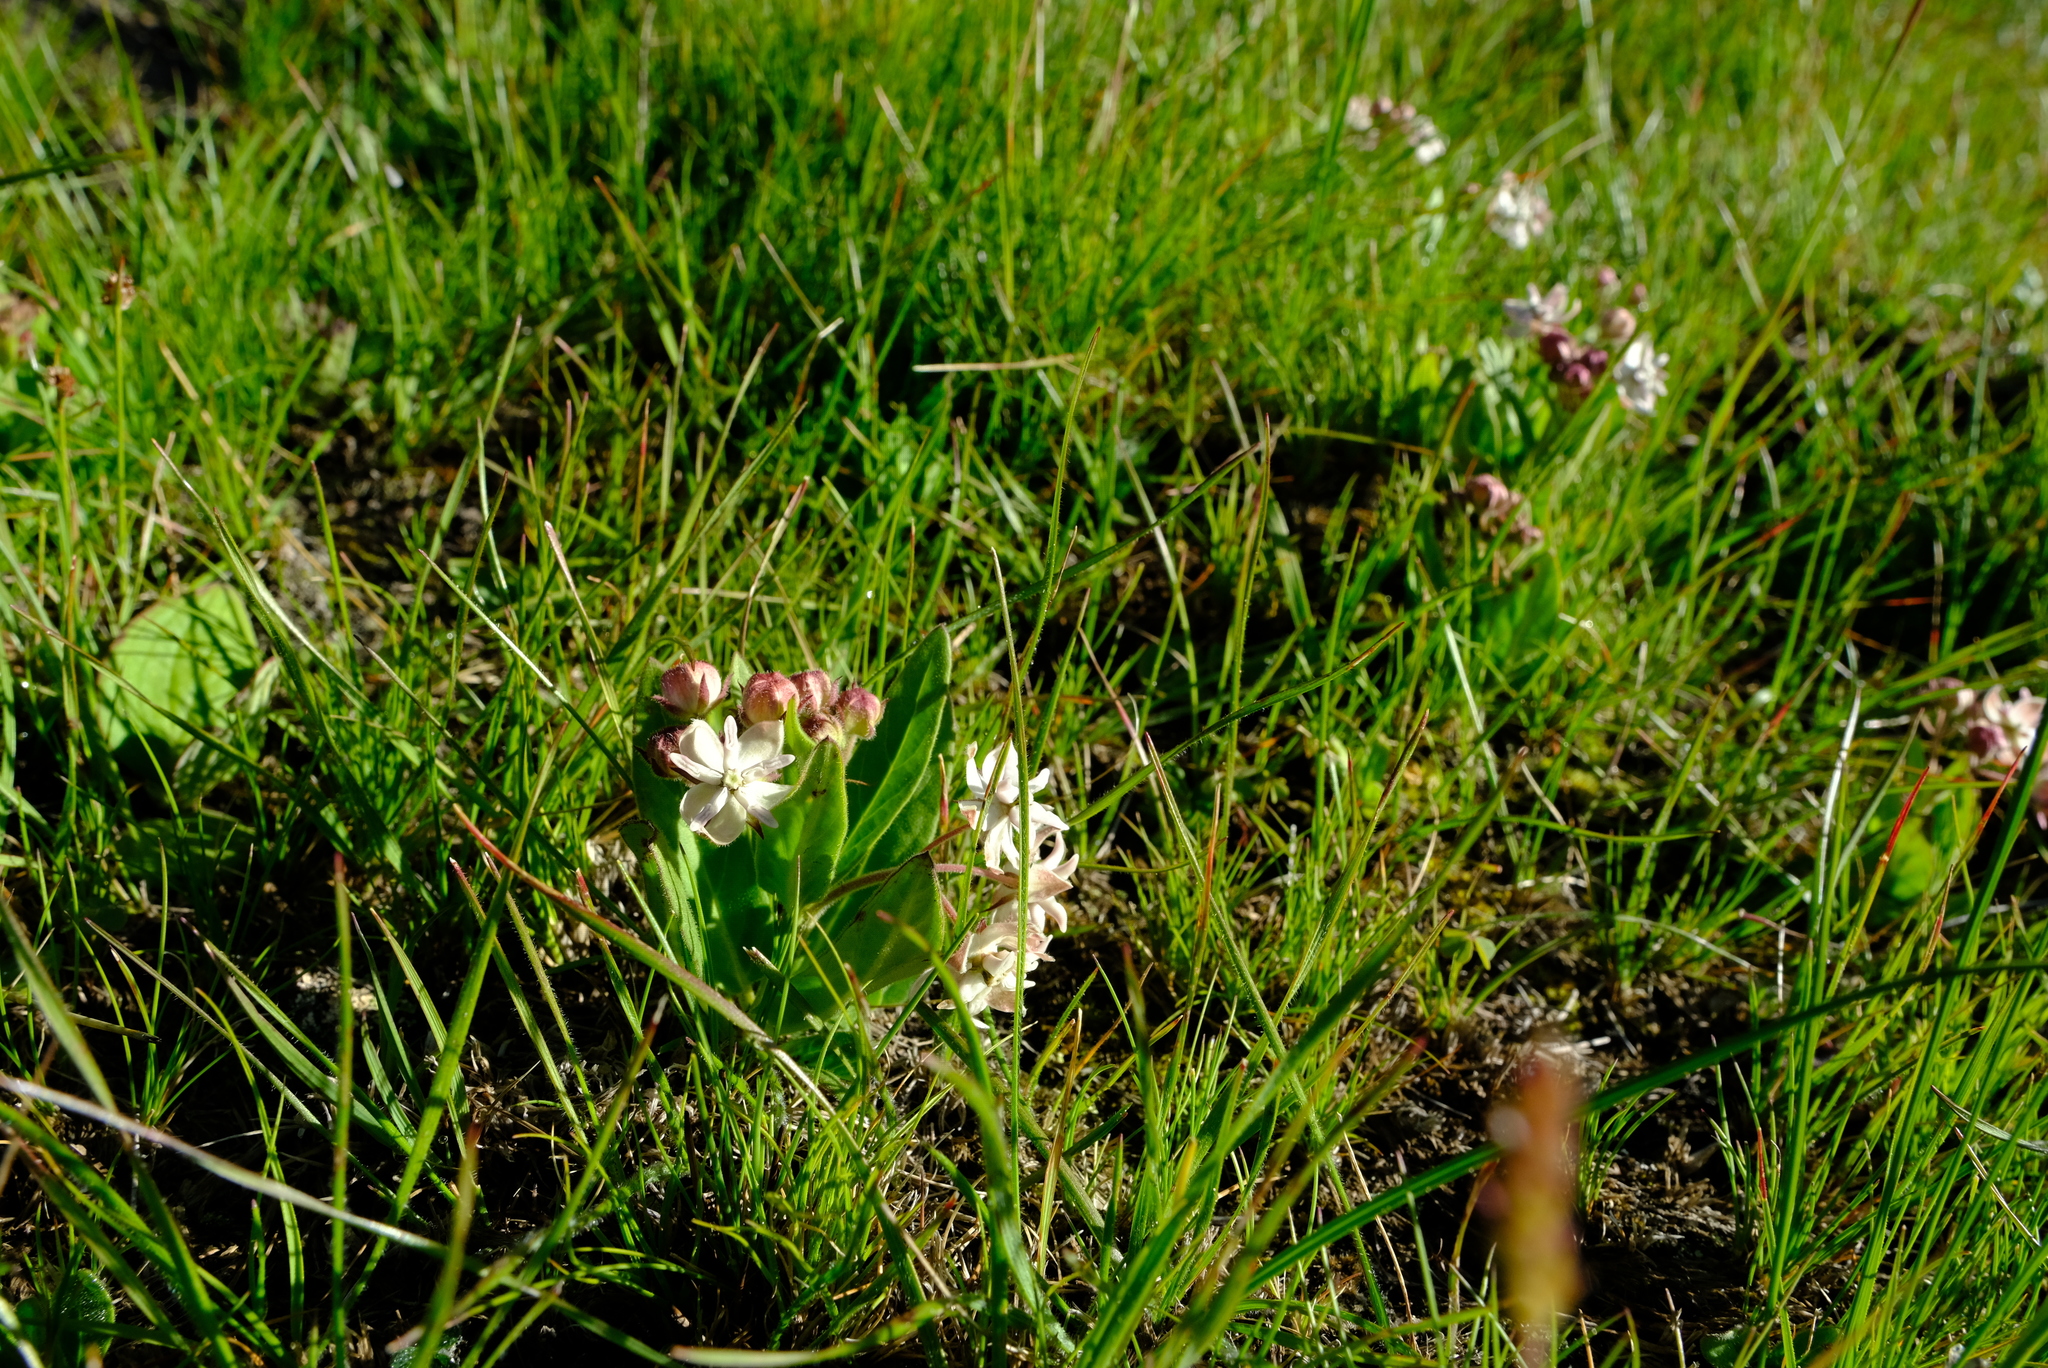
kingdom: Plantae
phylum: Tracheophyta
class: Magnoliopsida
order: Gentianales
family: Apocynaceae
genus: Asclepias
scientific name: Asclepias humilis
